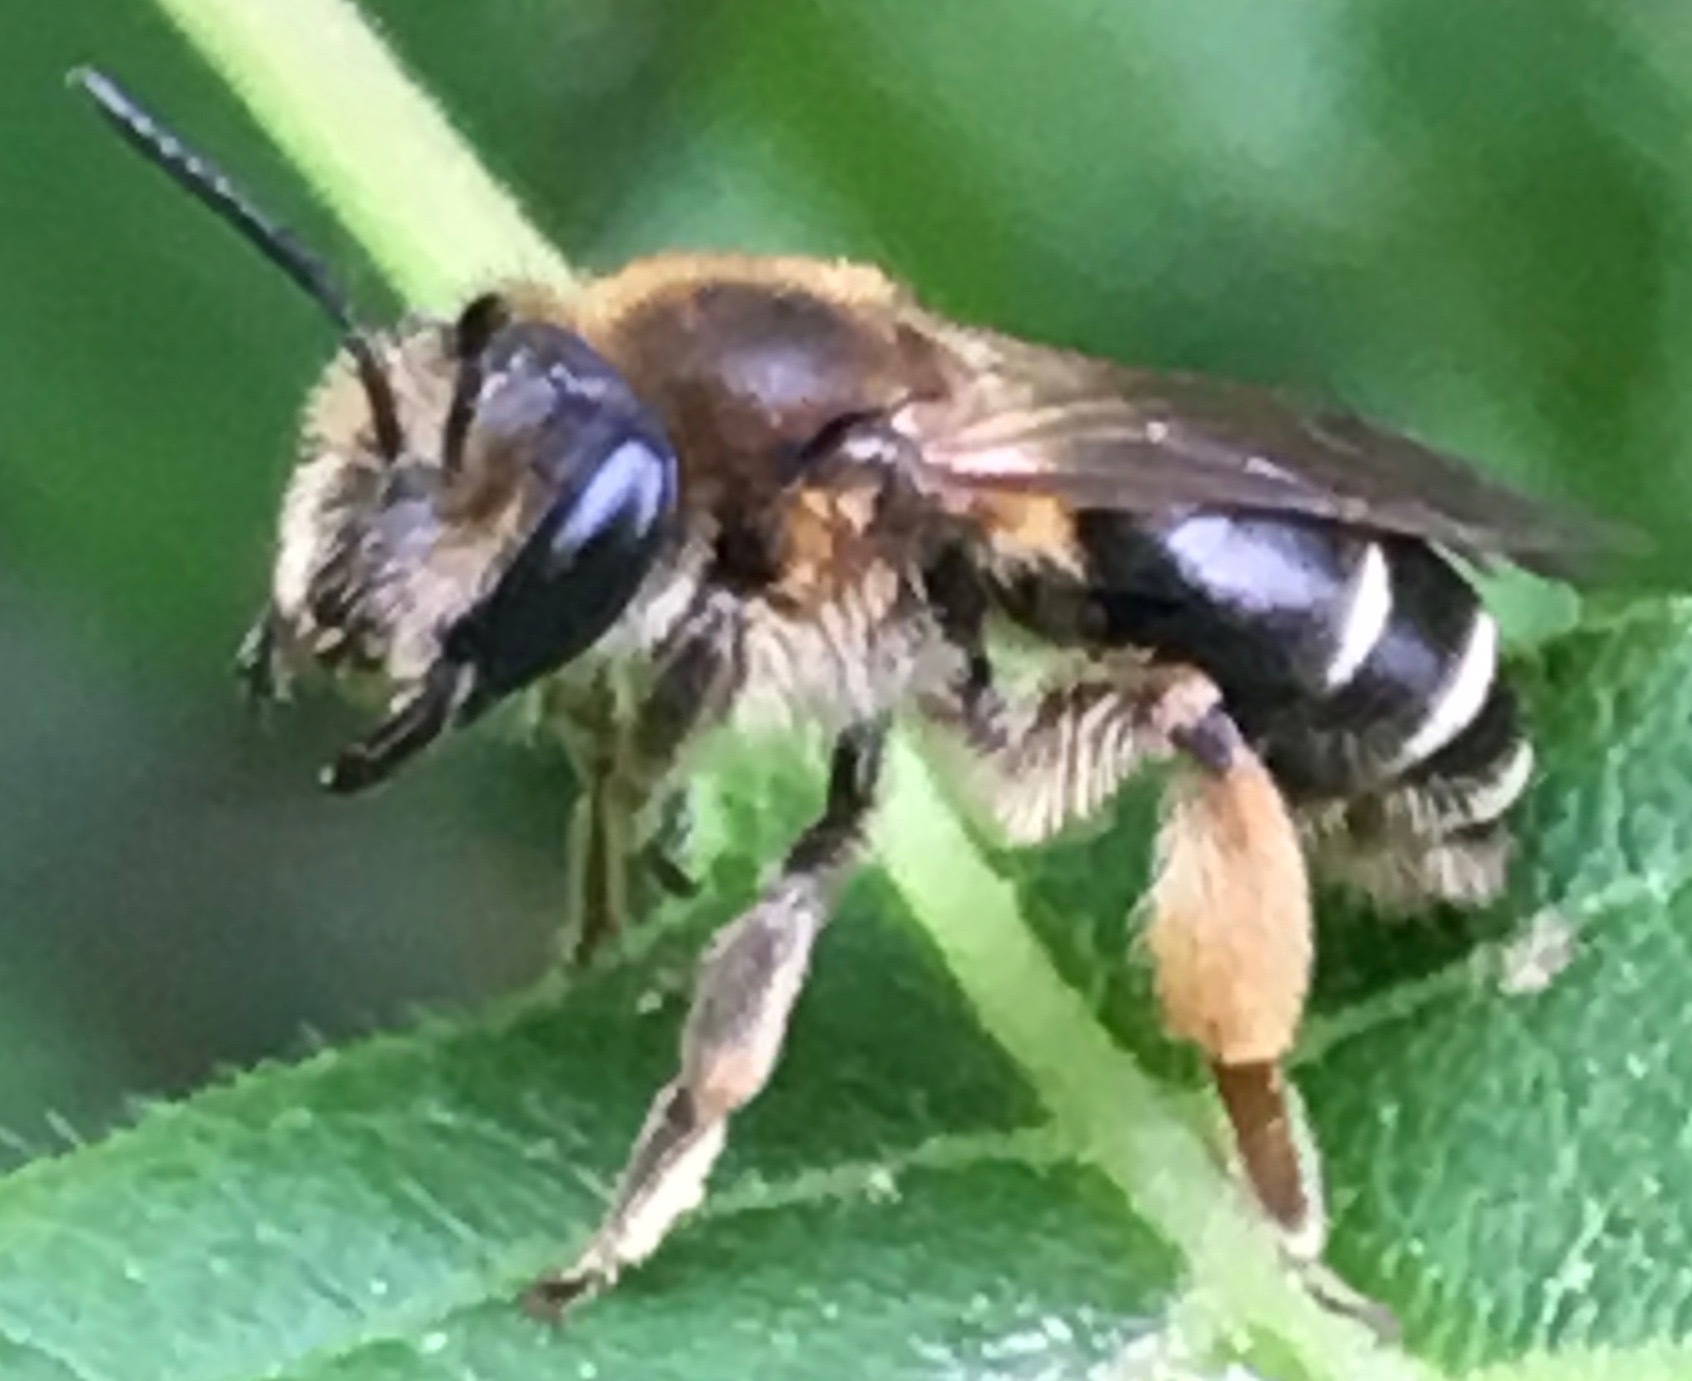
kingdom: Animalia
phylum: Arthropoda
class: Insecta
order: Hymenoptera
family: Andrenidae
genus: Andrena
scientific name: Andrena wilkella
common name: Wilke's mining bee
